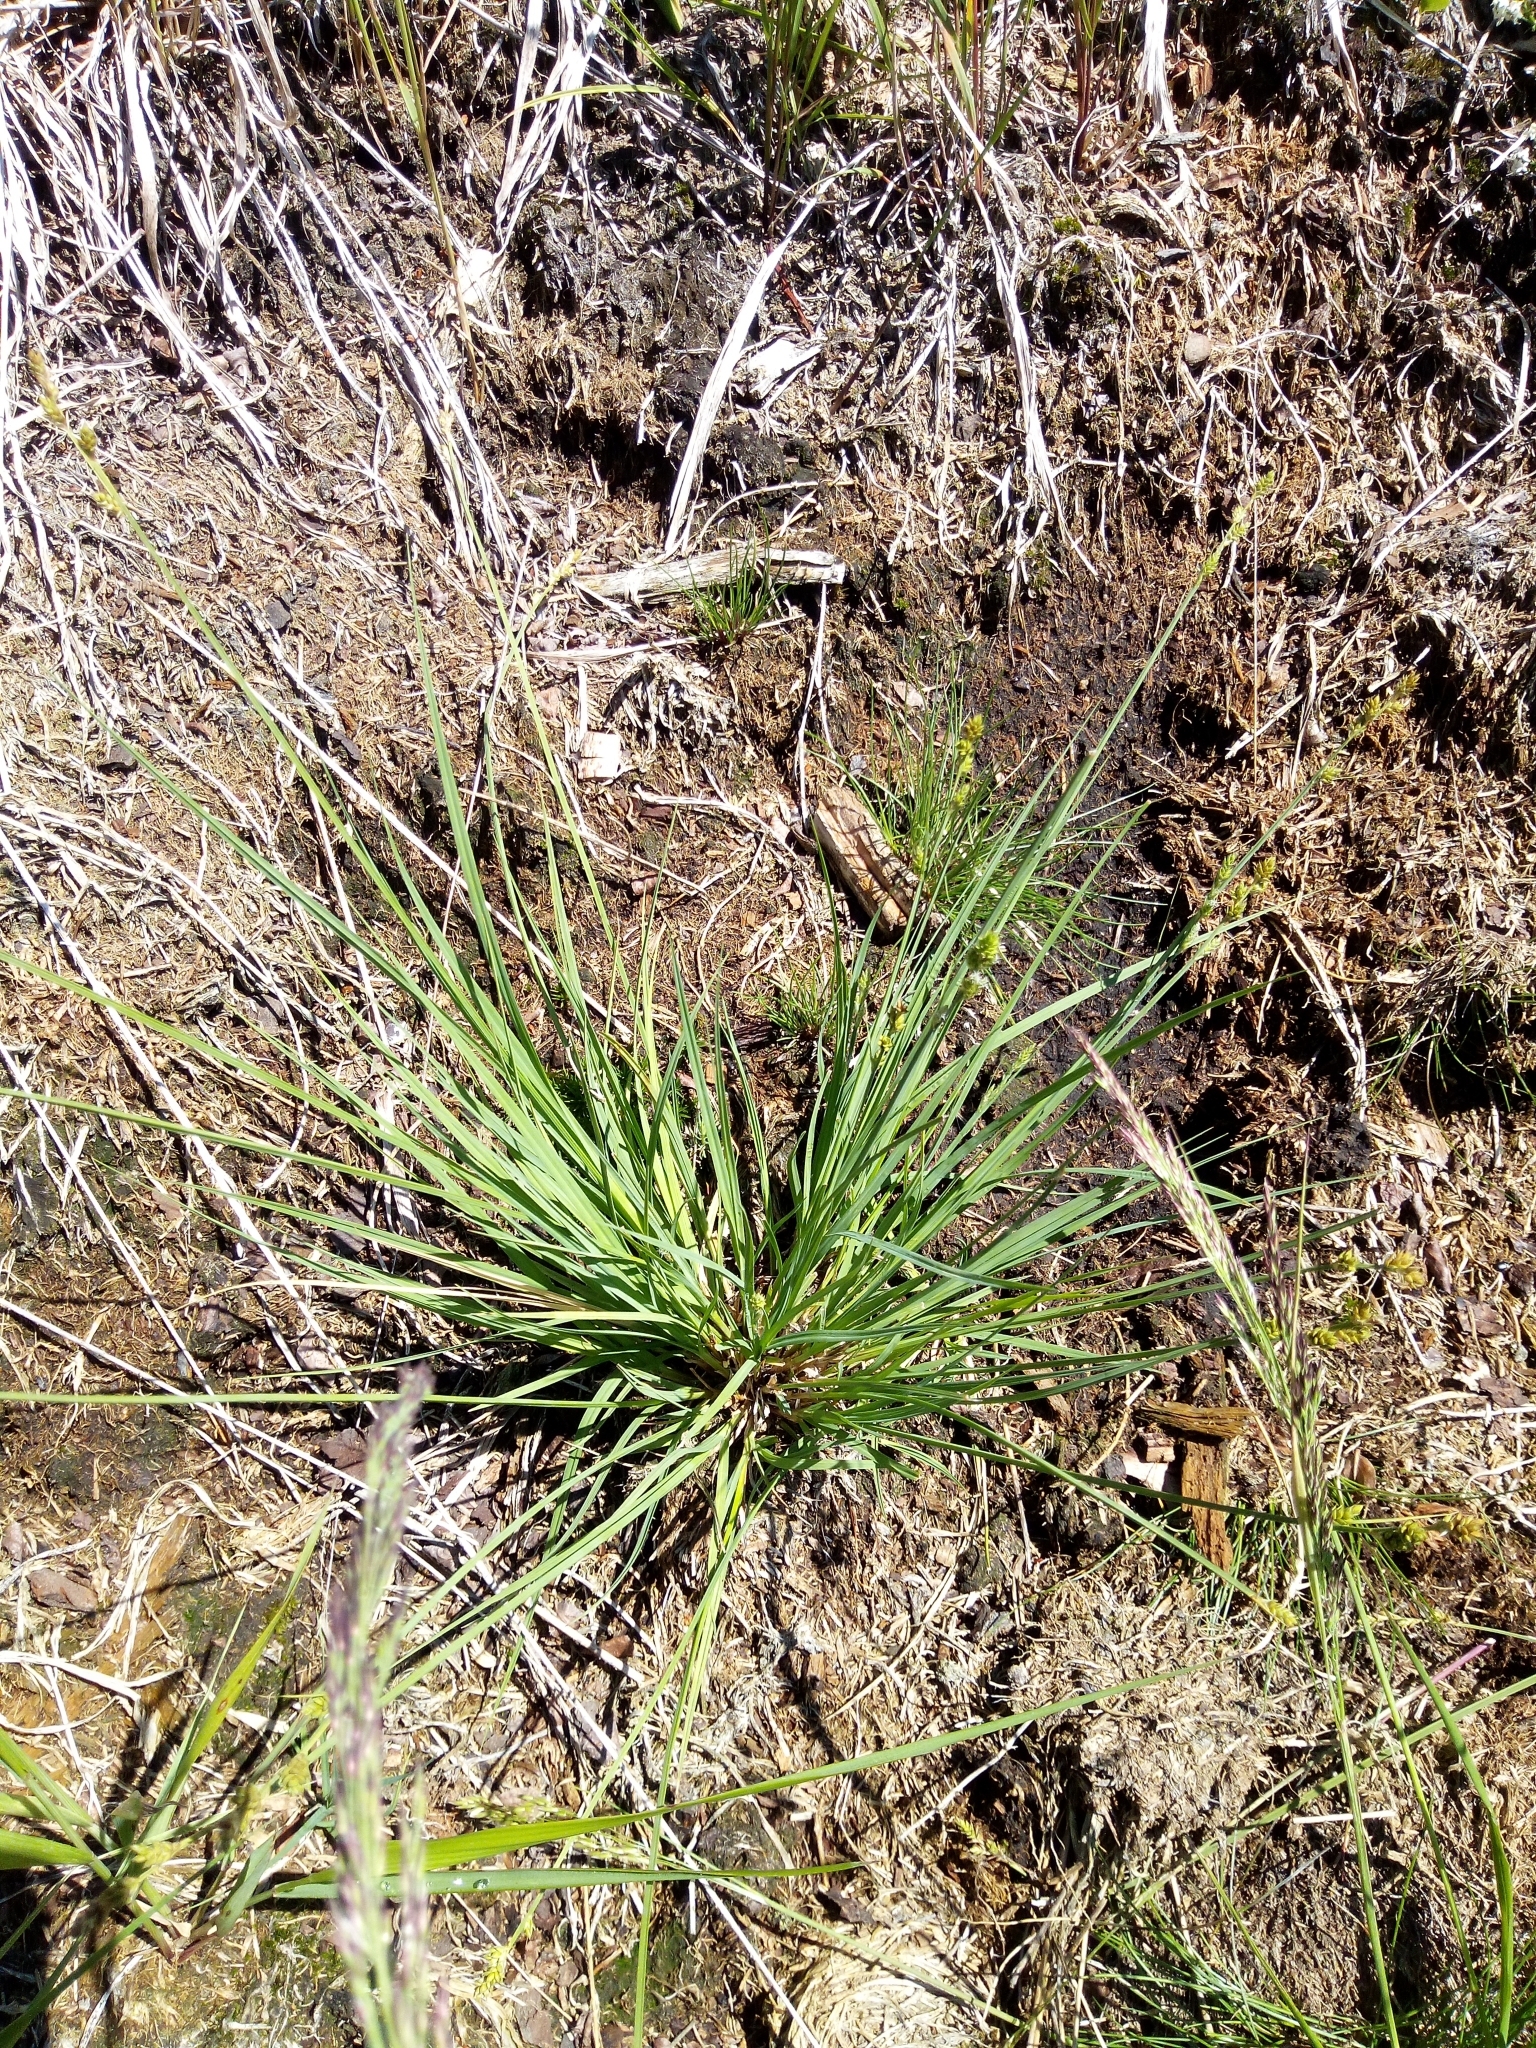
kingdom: Plantae
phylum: Tracheophyta
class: Liliopsida
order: Poales
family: Cyperaceae
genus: Carex
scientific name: Carex canescens
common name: White sedge
